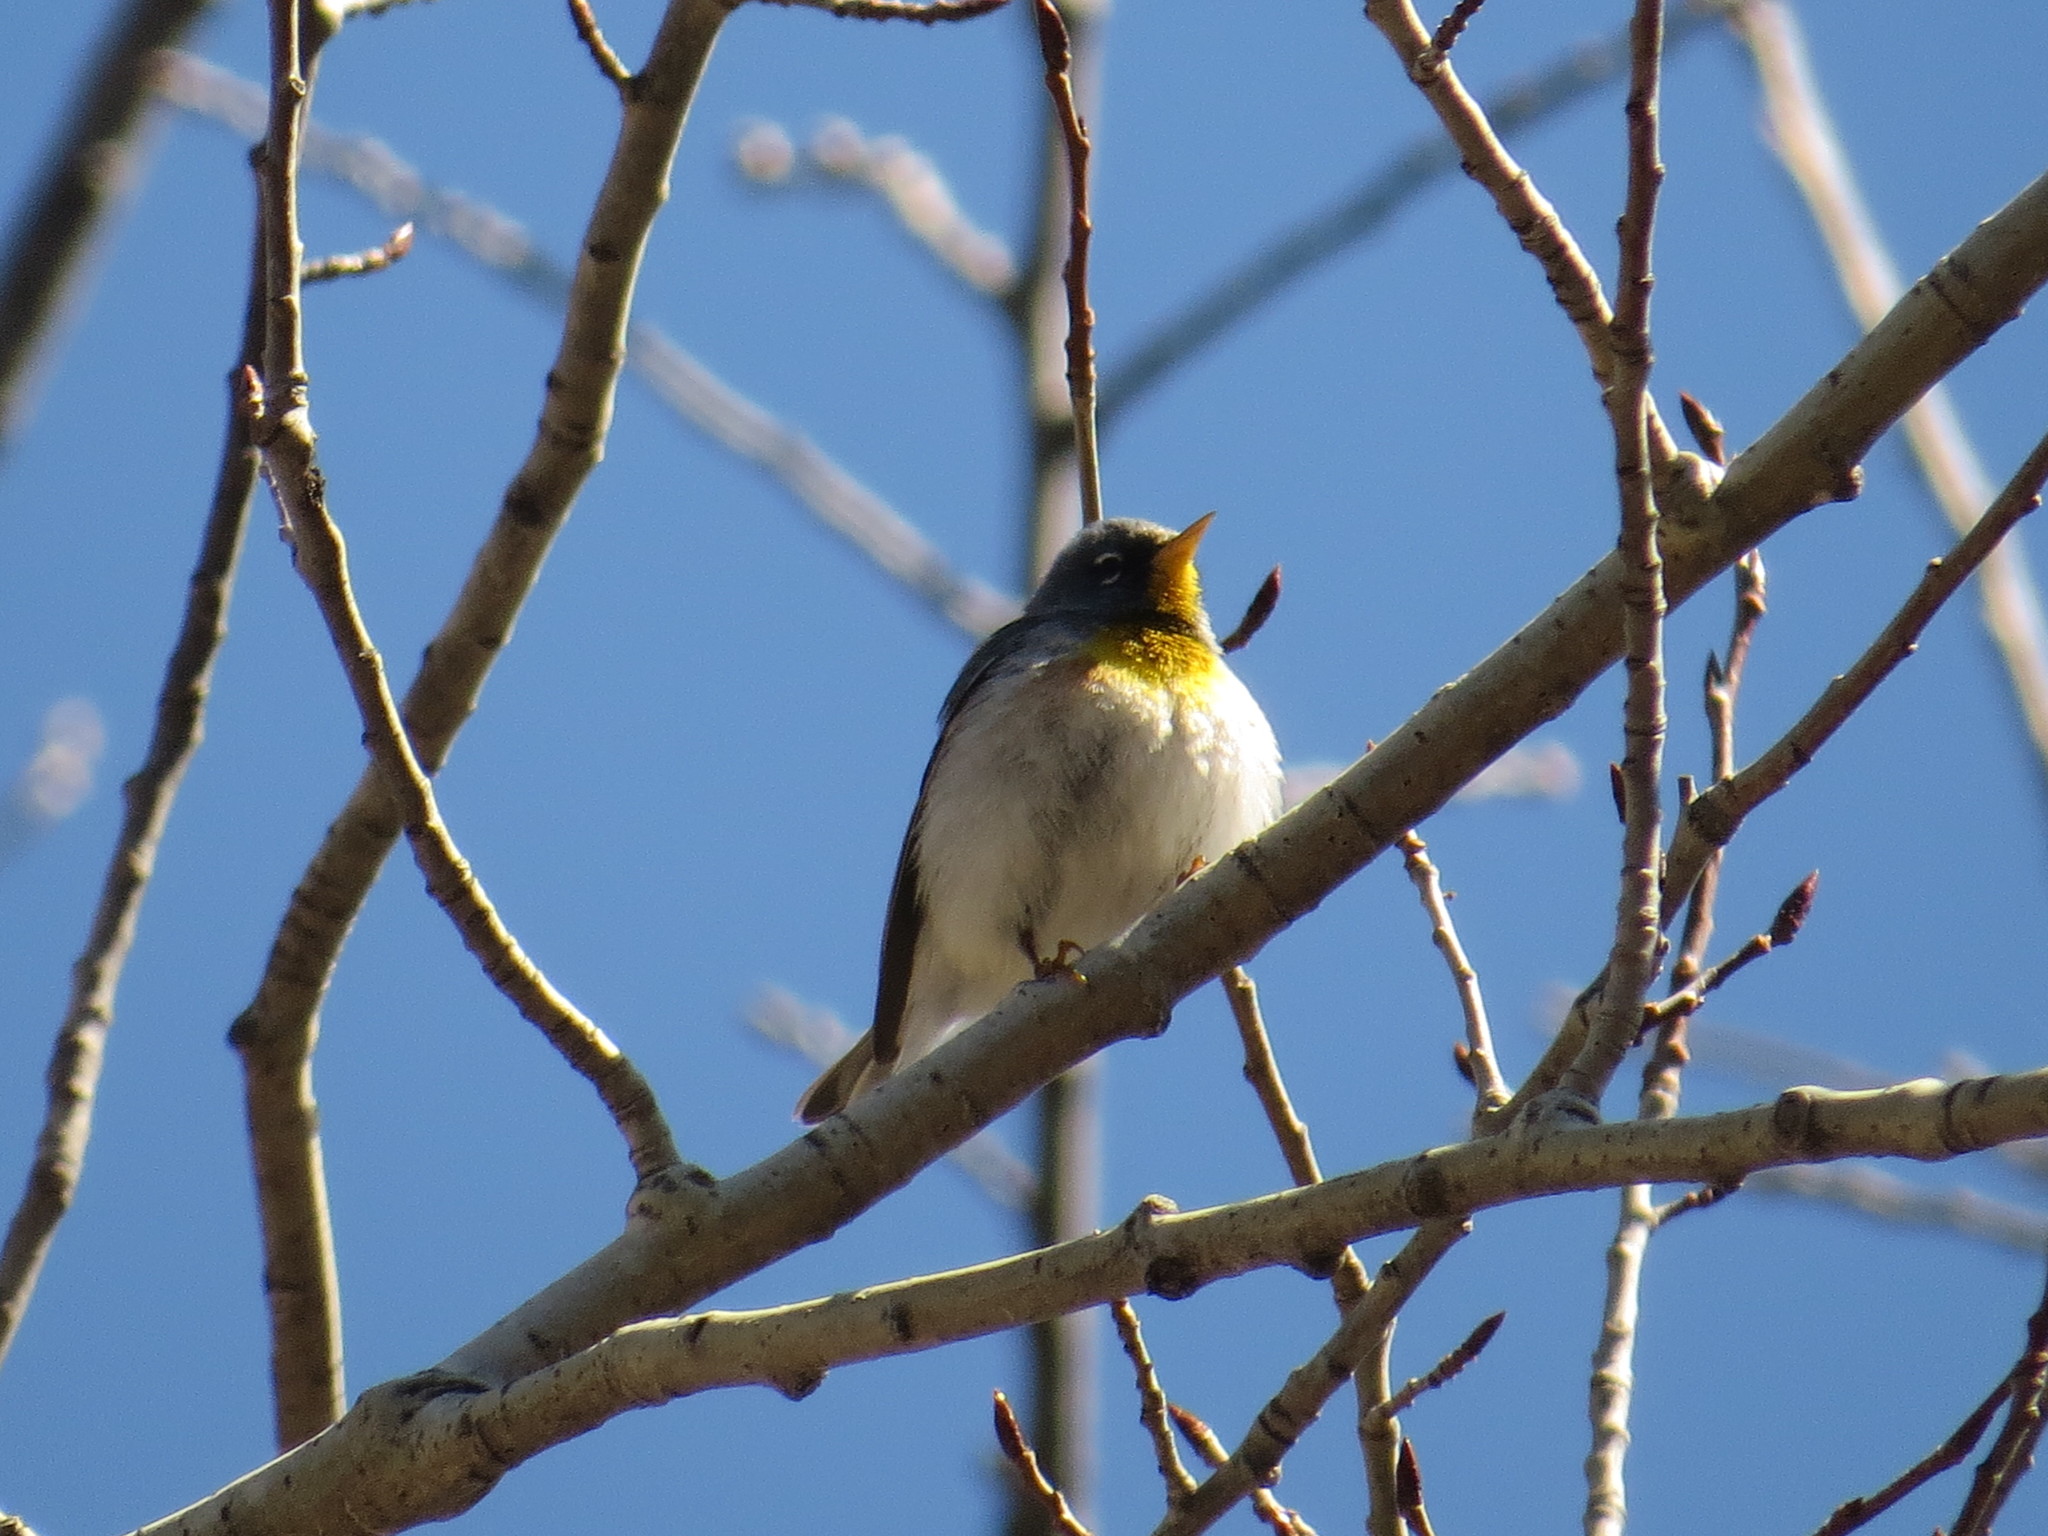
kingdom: Animalia
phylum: Chordata
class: Aves
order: Passeriformes
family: Parulidae
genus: Setophaga
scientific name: Setophaga americana
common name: Northern parula
